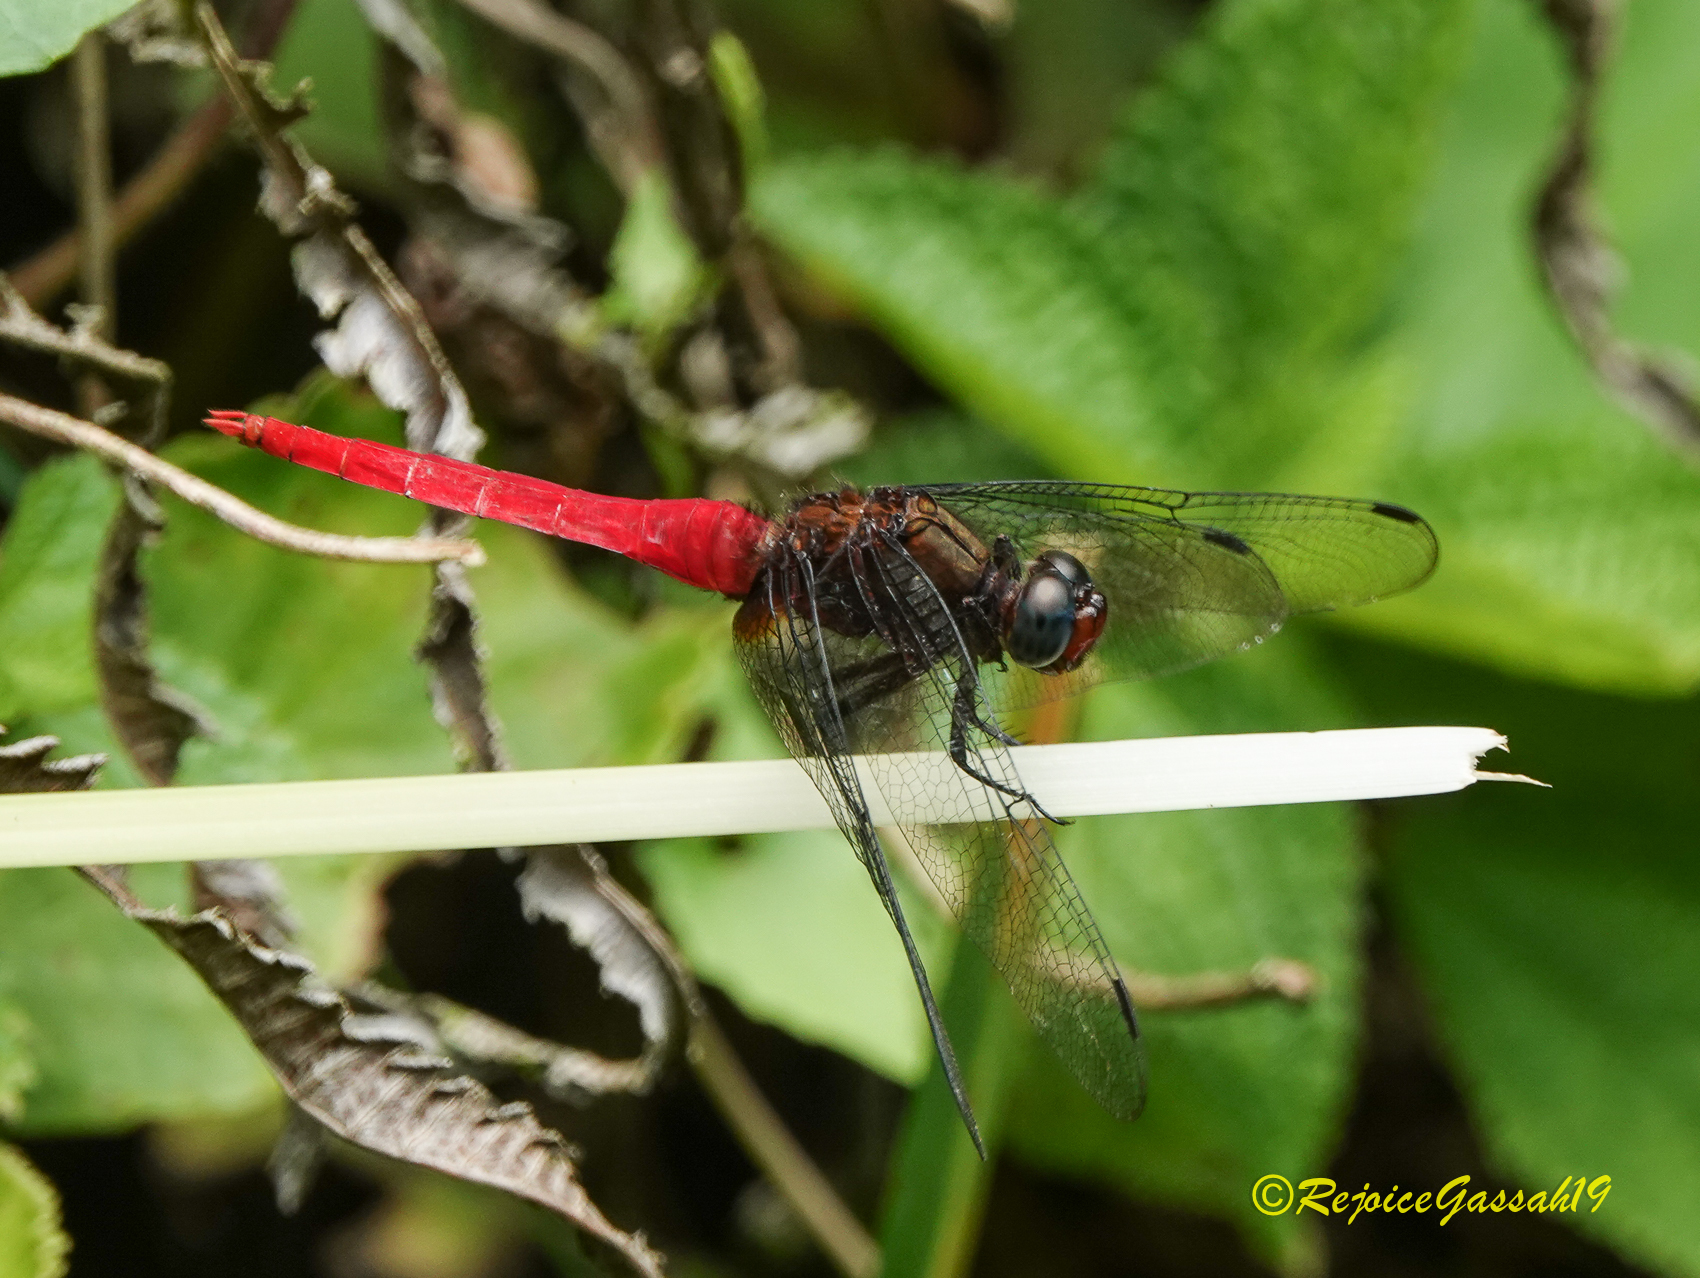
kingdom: Animalia
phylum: Arthropoda
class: Insecta
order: Odonata
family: Libellulidae
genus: Orthetrum
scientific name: Orthetrum chrysis
